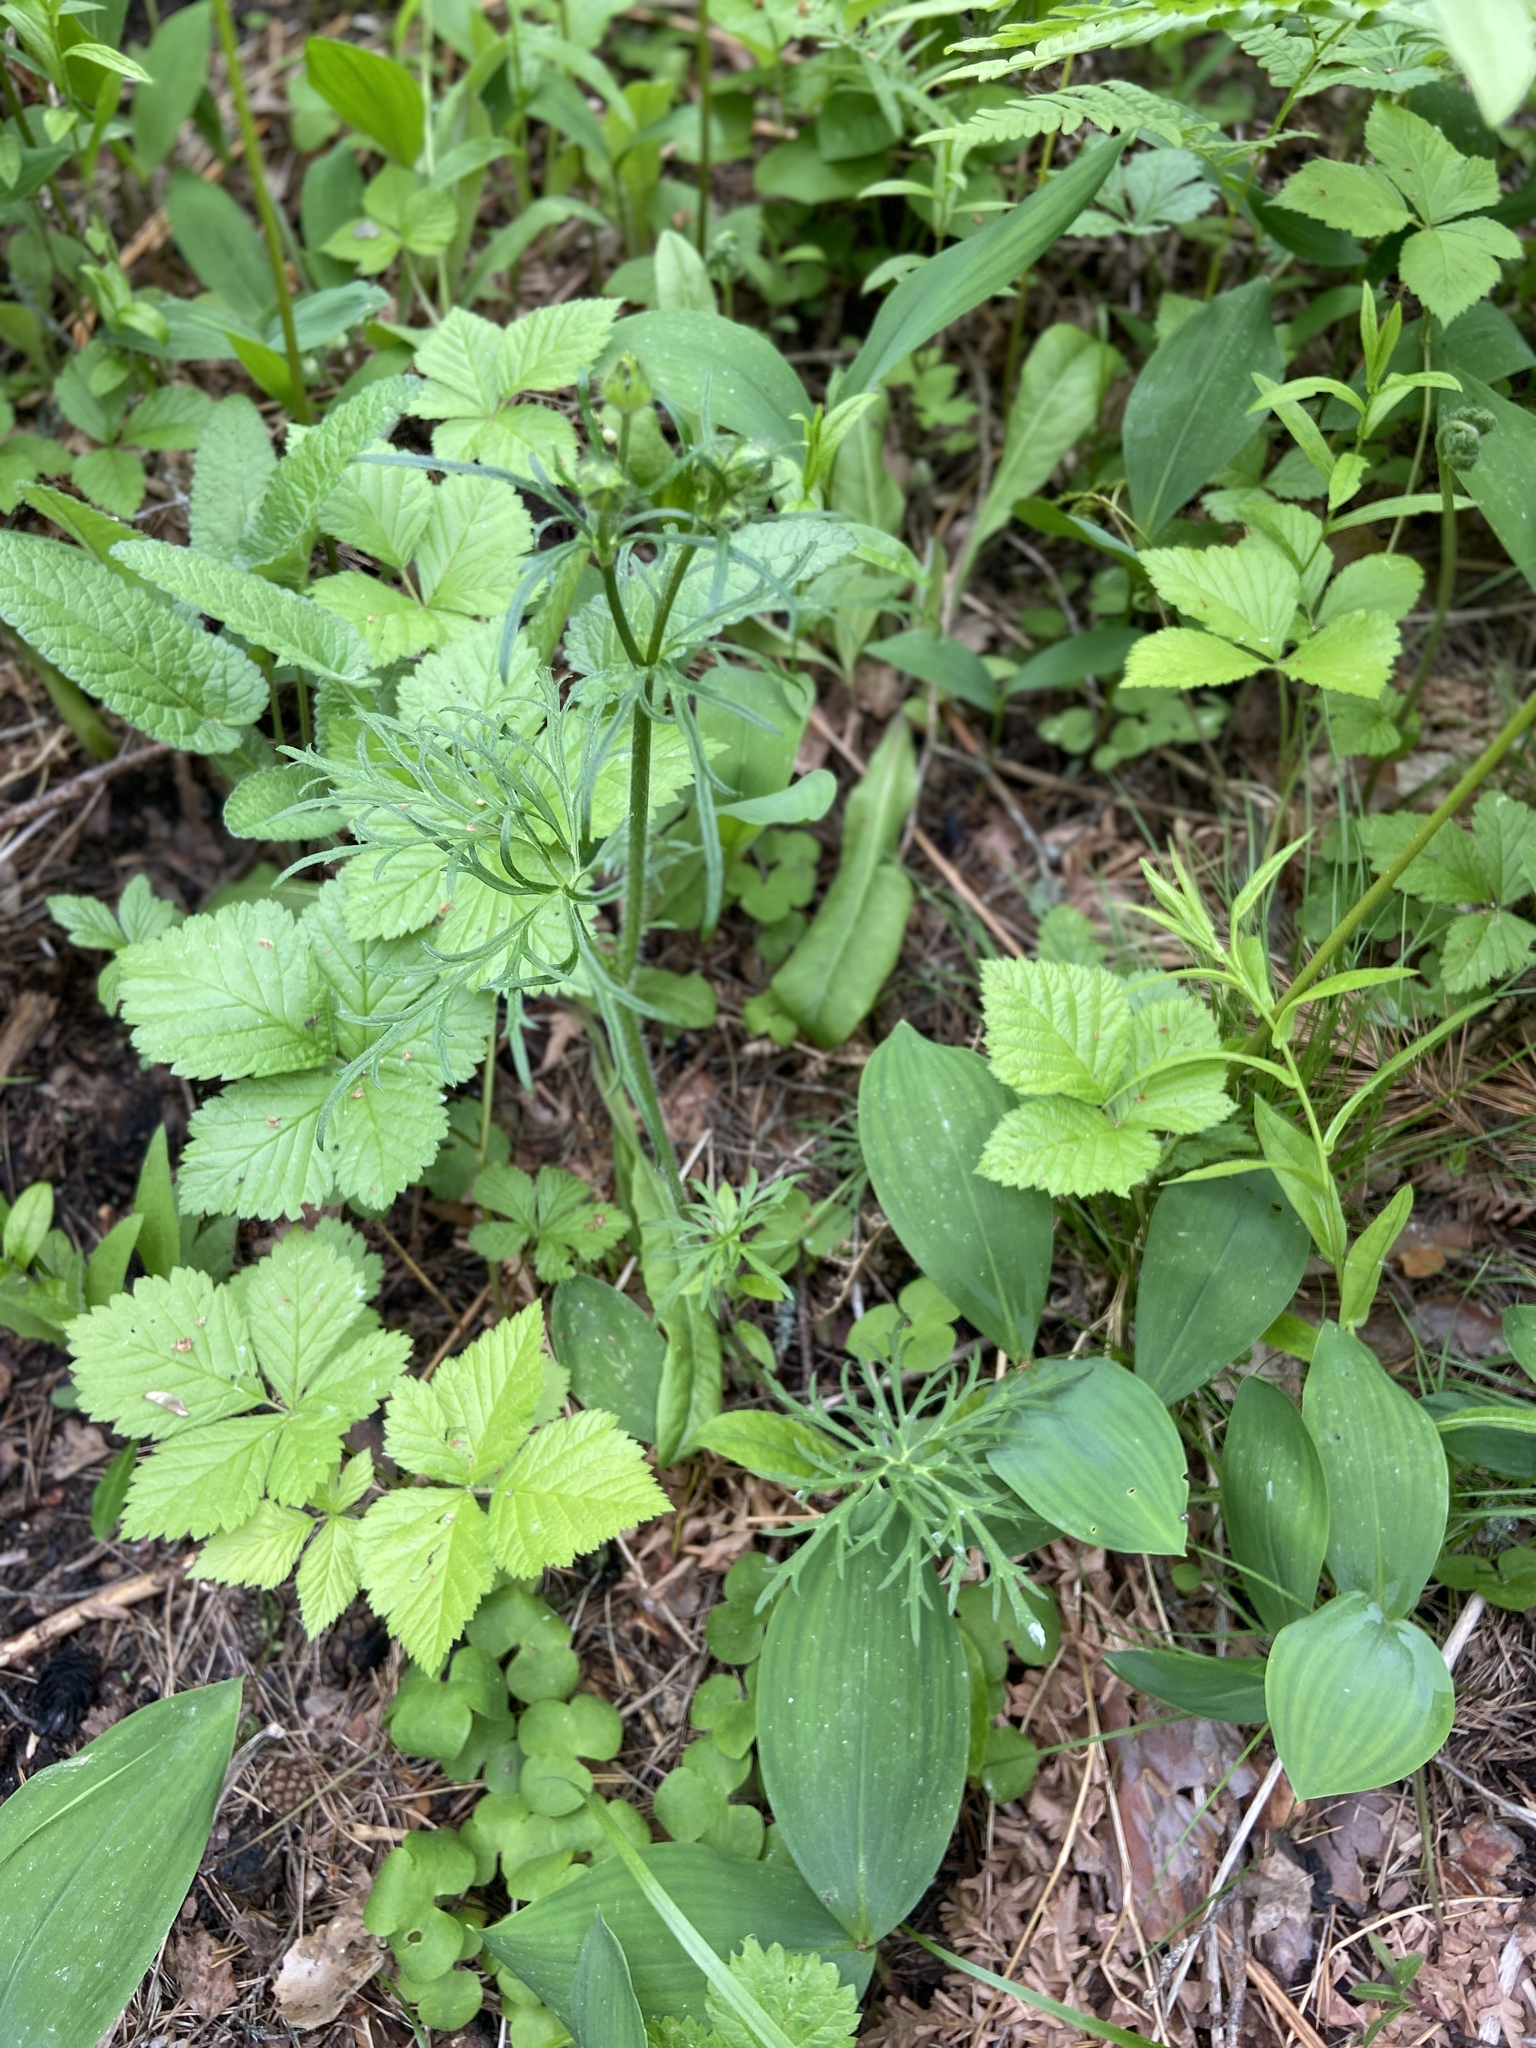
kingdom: Plantae
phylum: Tracheophyta
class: Magnoliopsida
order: Ranunculales
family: Ranunculaceae
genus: Ranunculus
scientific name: Ranunculus polyanthemos
